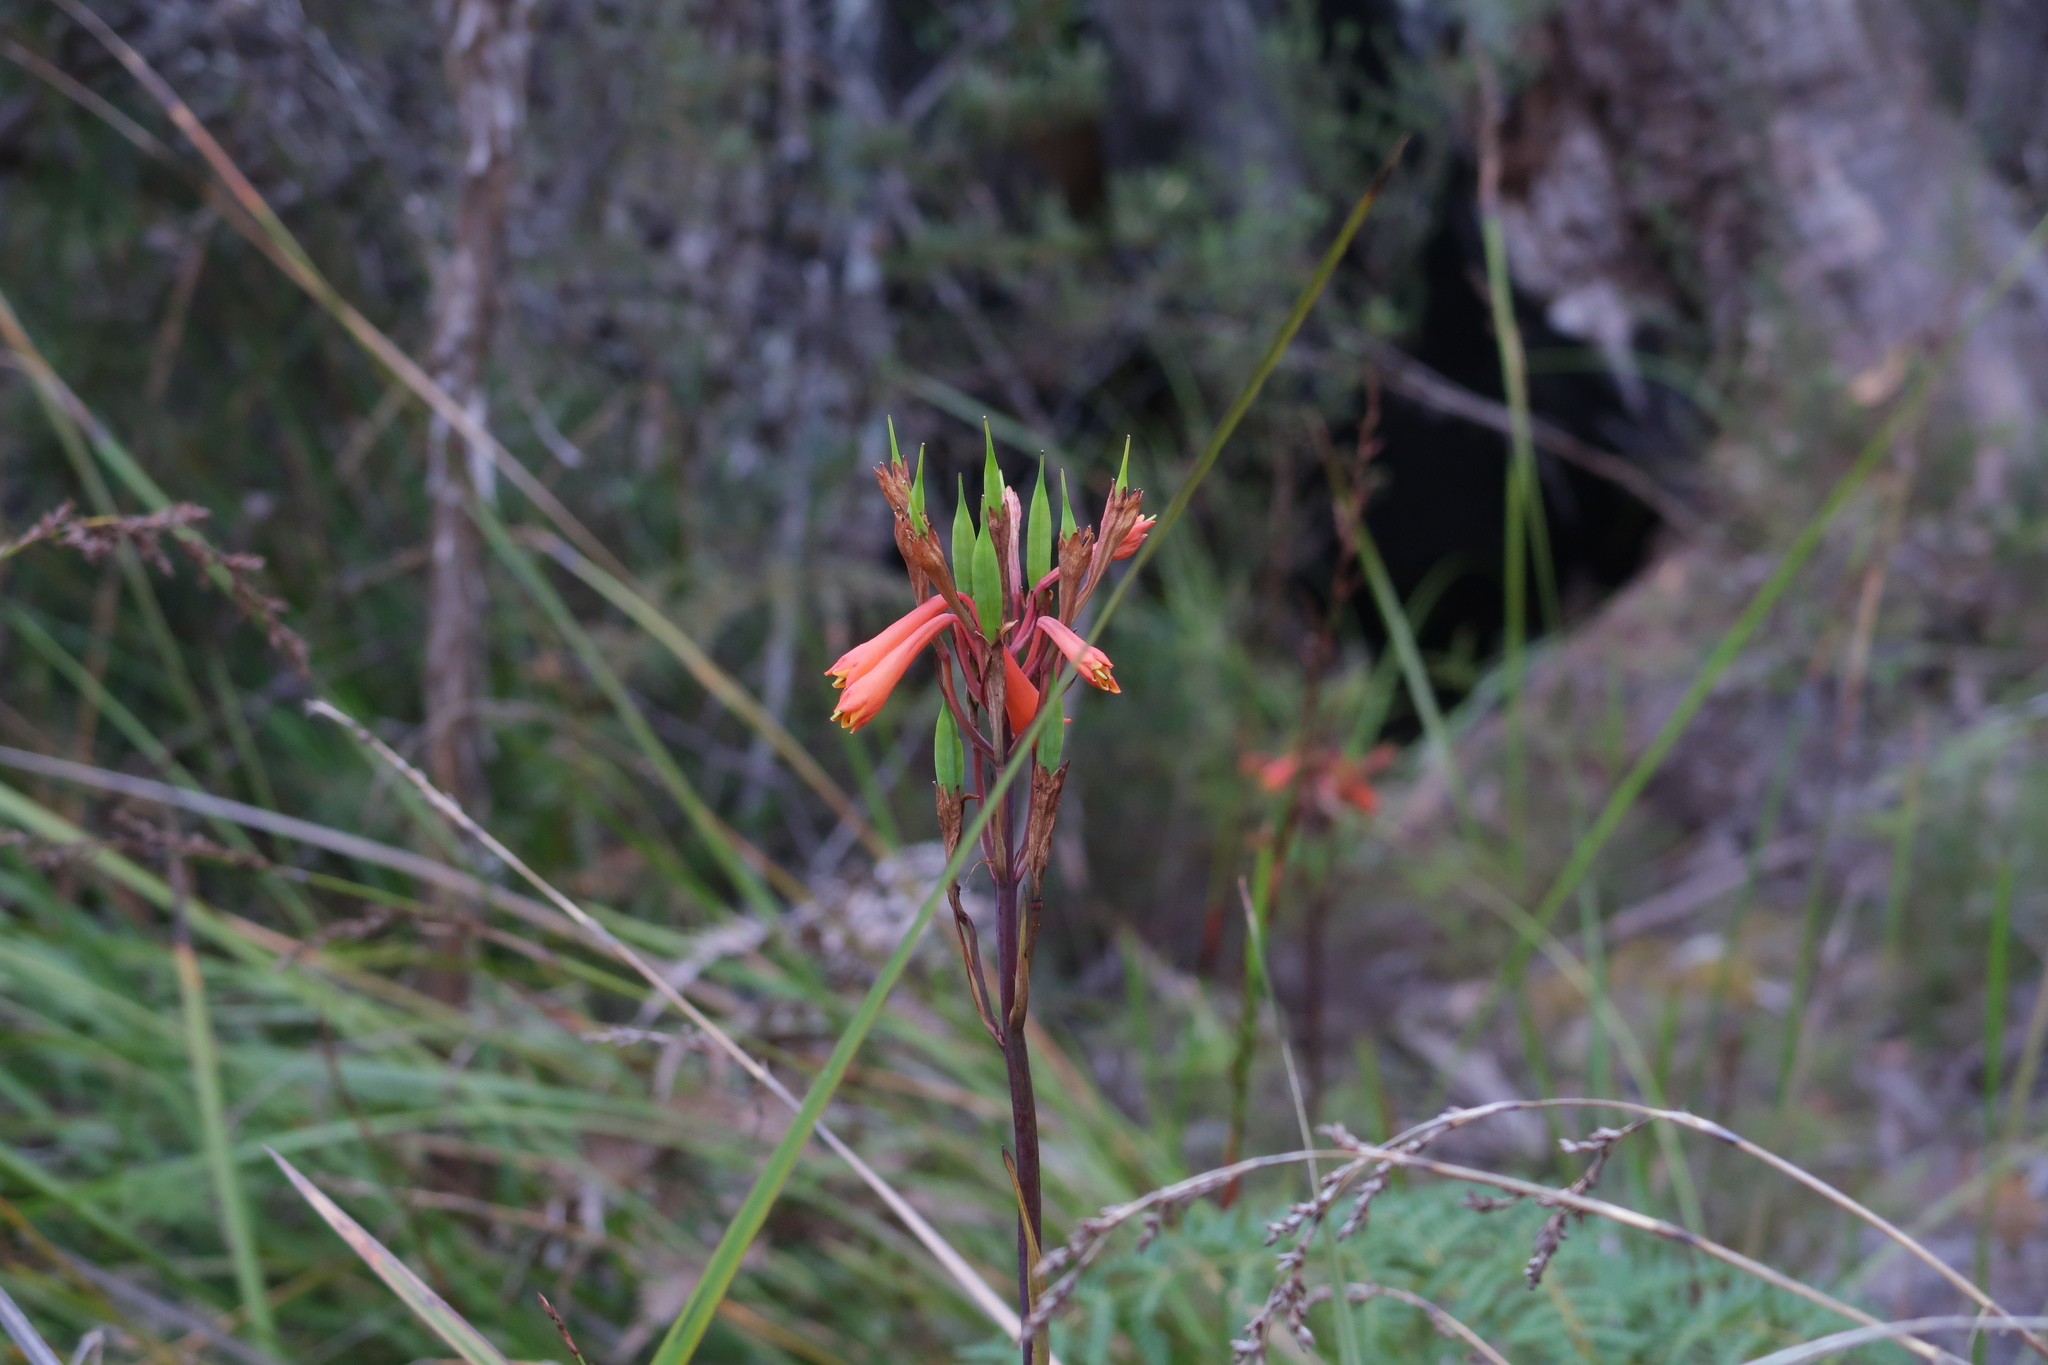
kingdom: Plantae
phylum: Tracheophyta
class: Liliopsida
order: Asparagales
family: Blandfordiaceae
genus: Blandfordia
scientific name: Blandfordia punicea
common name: Tasmanian christmas-bell
